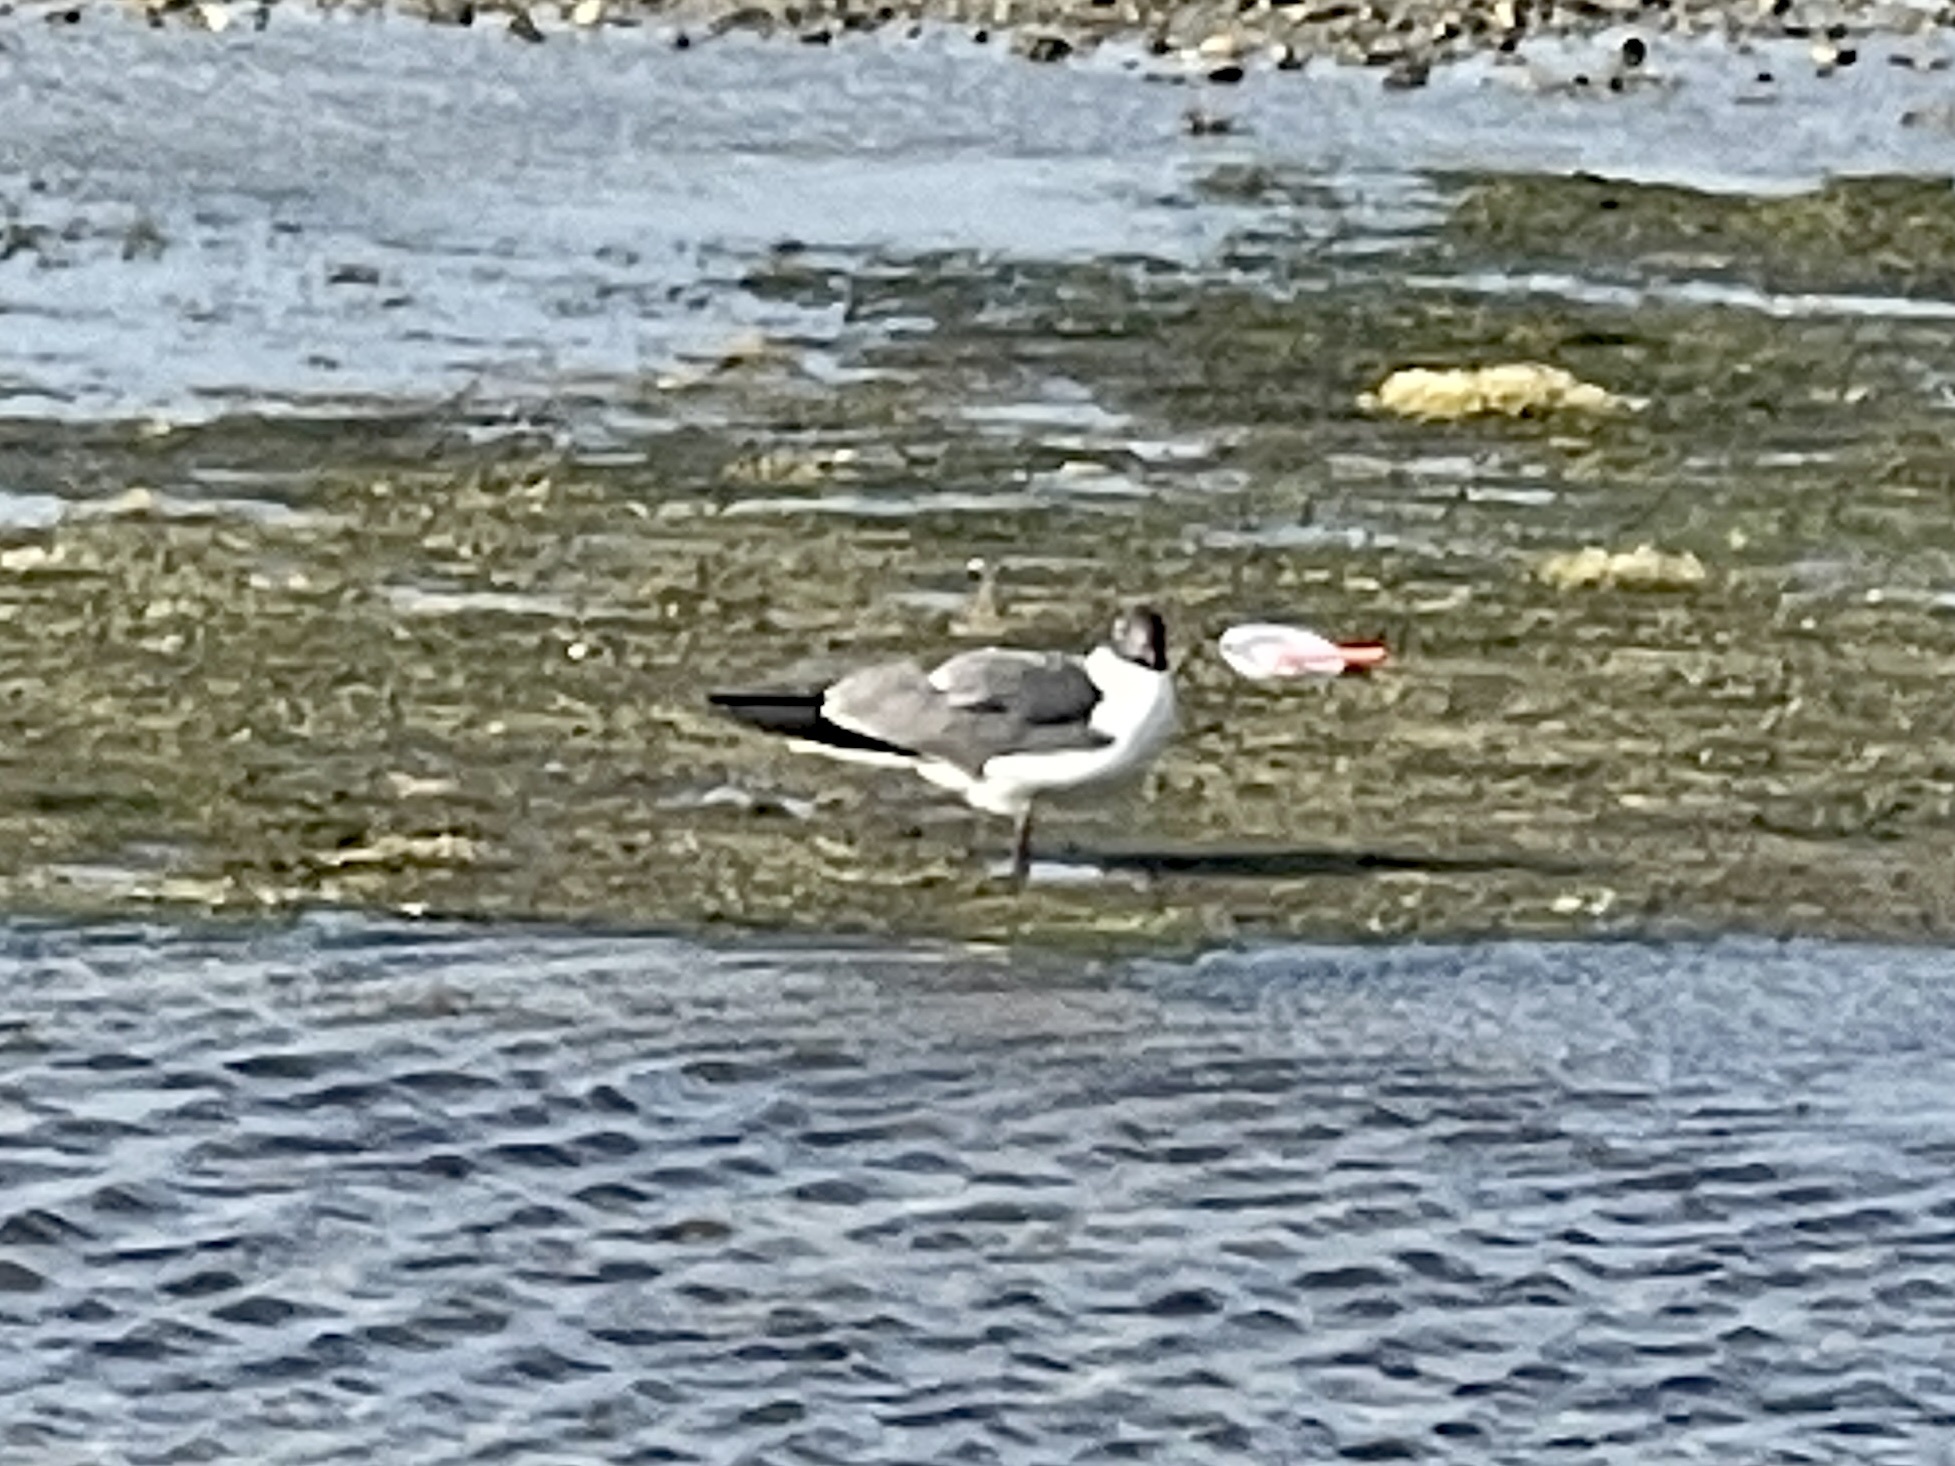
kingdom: Animalia
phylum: Chordata
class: Aves
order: Charadriiformes
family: Laridae
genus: Leucophaeus
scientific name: Leucophaeus atricilla
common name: Laughing gull
